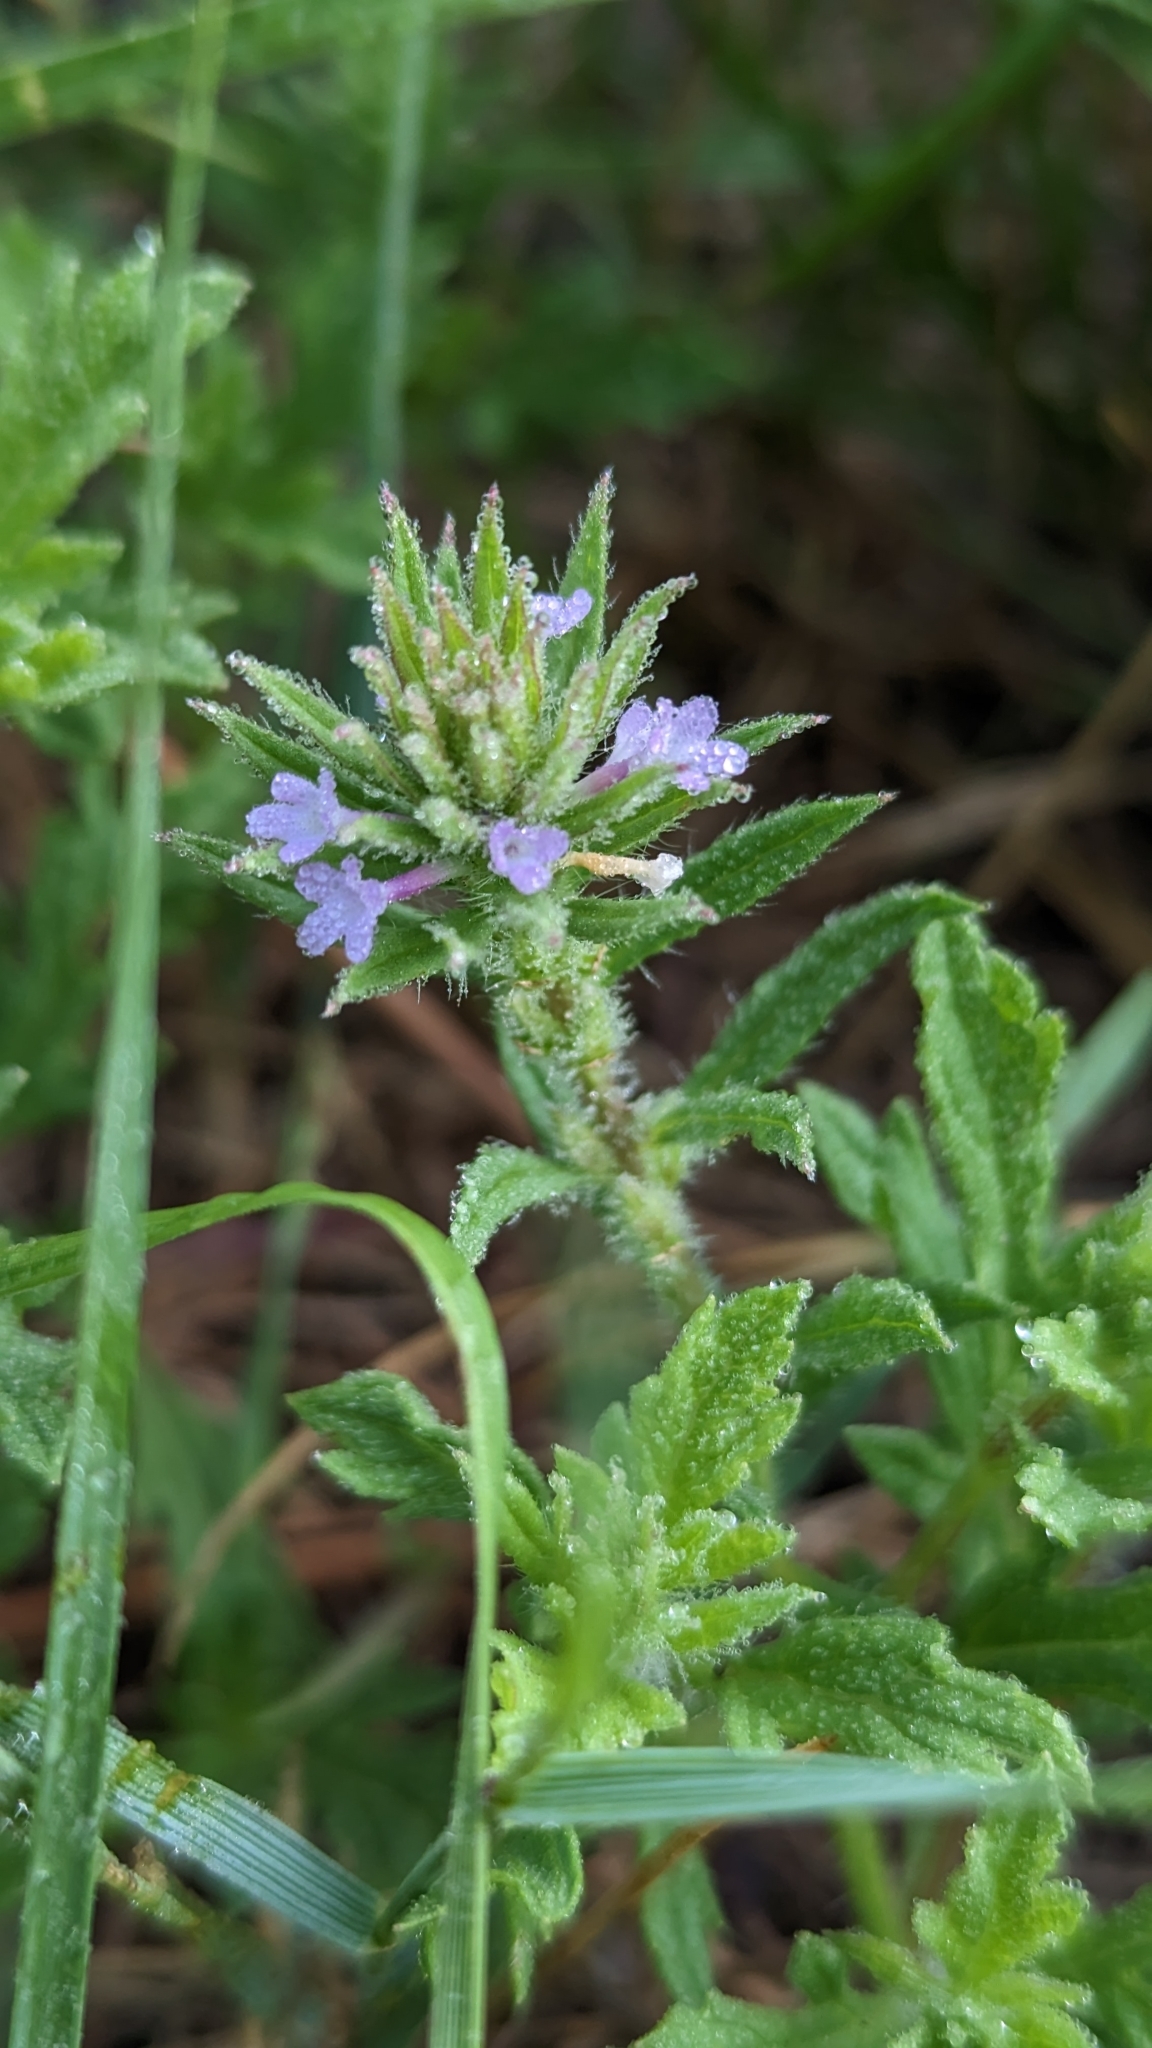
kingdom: Plantae
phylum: Tracheophyta
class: Magnoliopsida
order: Lamiales
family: Verbenaceae
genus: Verbena
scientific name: Verbena bracteata
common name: Bracted vervain
